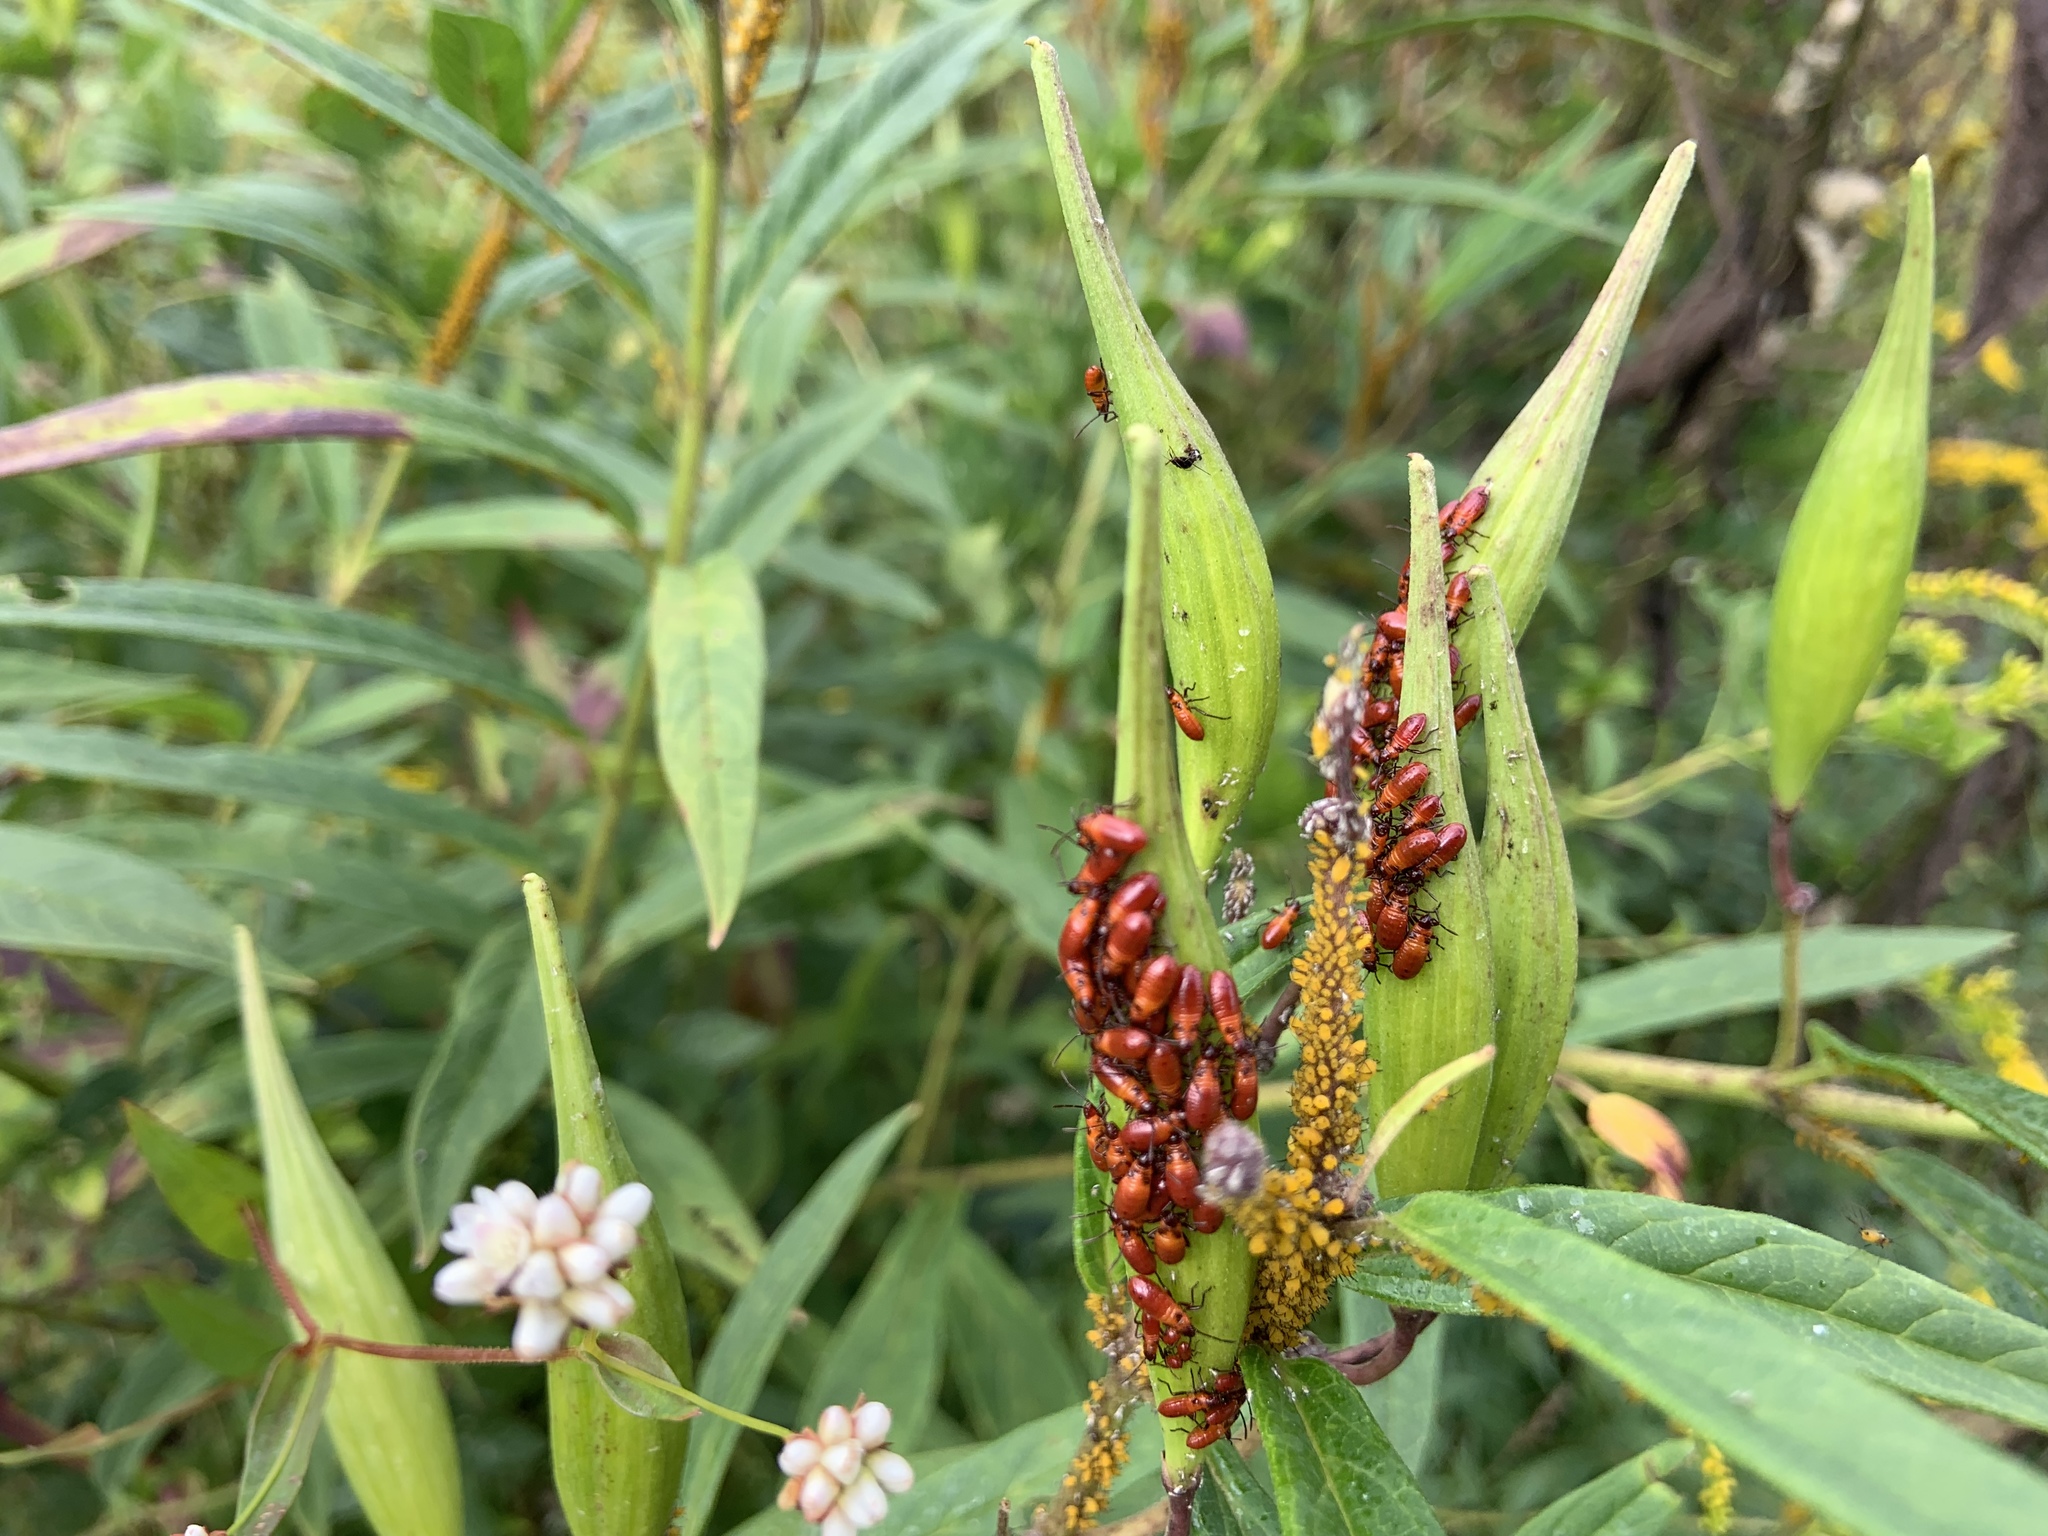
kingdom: Animalia
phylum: Arthropoda
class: Insecta
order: Hemiptera
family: Lygaeidae
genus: Oncopeltus
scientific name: Oncopeltus fasciatus
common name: Large milkweed bug
